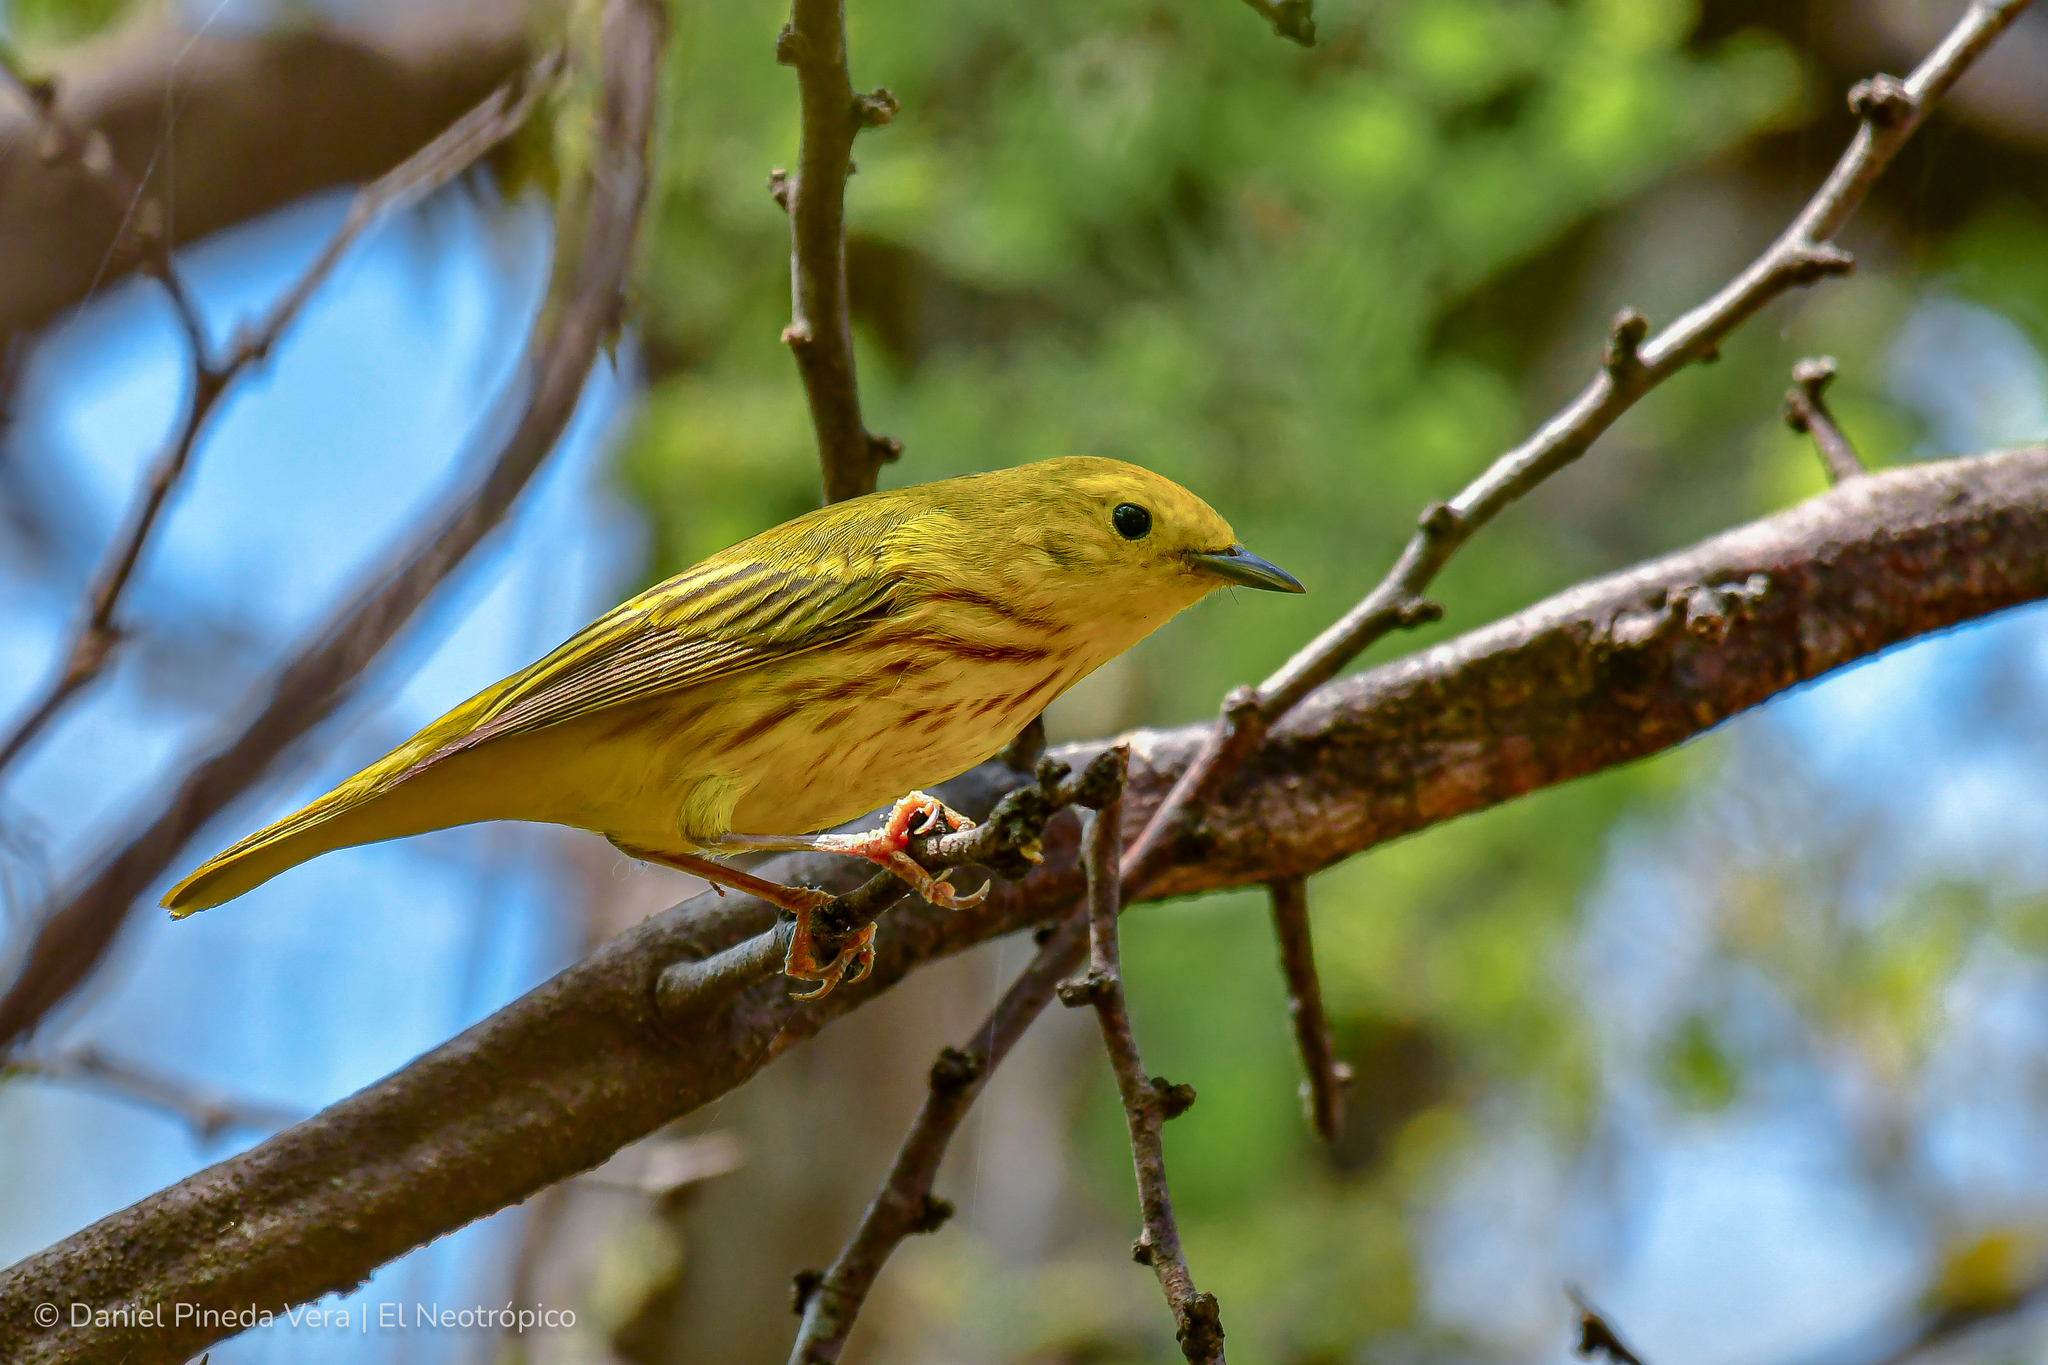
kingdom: Animalia
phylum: Chordata
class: Aves
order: Passeriformes
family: Parulidae
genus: Setophaga
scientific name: Setophaga petechia
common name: Yellow warbler
